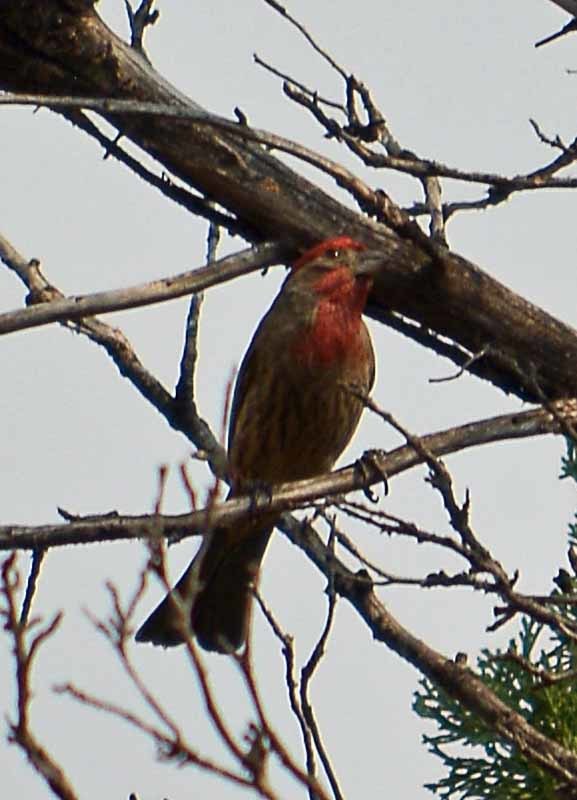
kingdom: Animalia
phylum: Chordata
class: Aves
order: Passeriformes
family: Fringillidae
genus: Haemorhous
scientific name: Haemorhous mexicanus
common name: House finch
